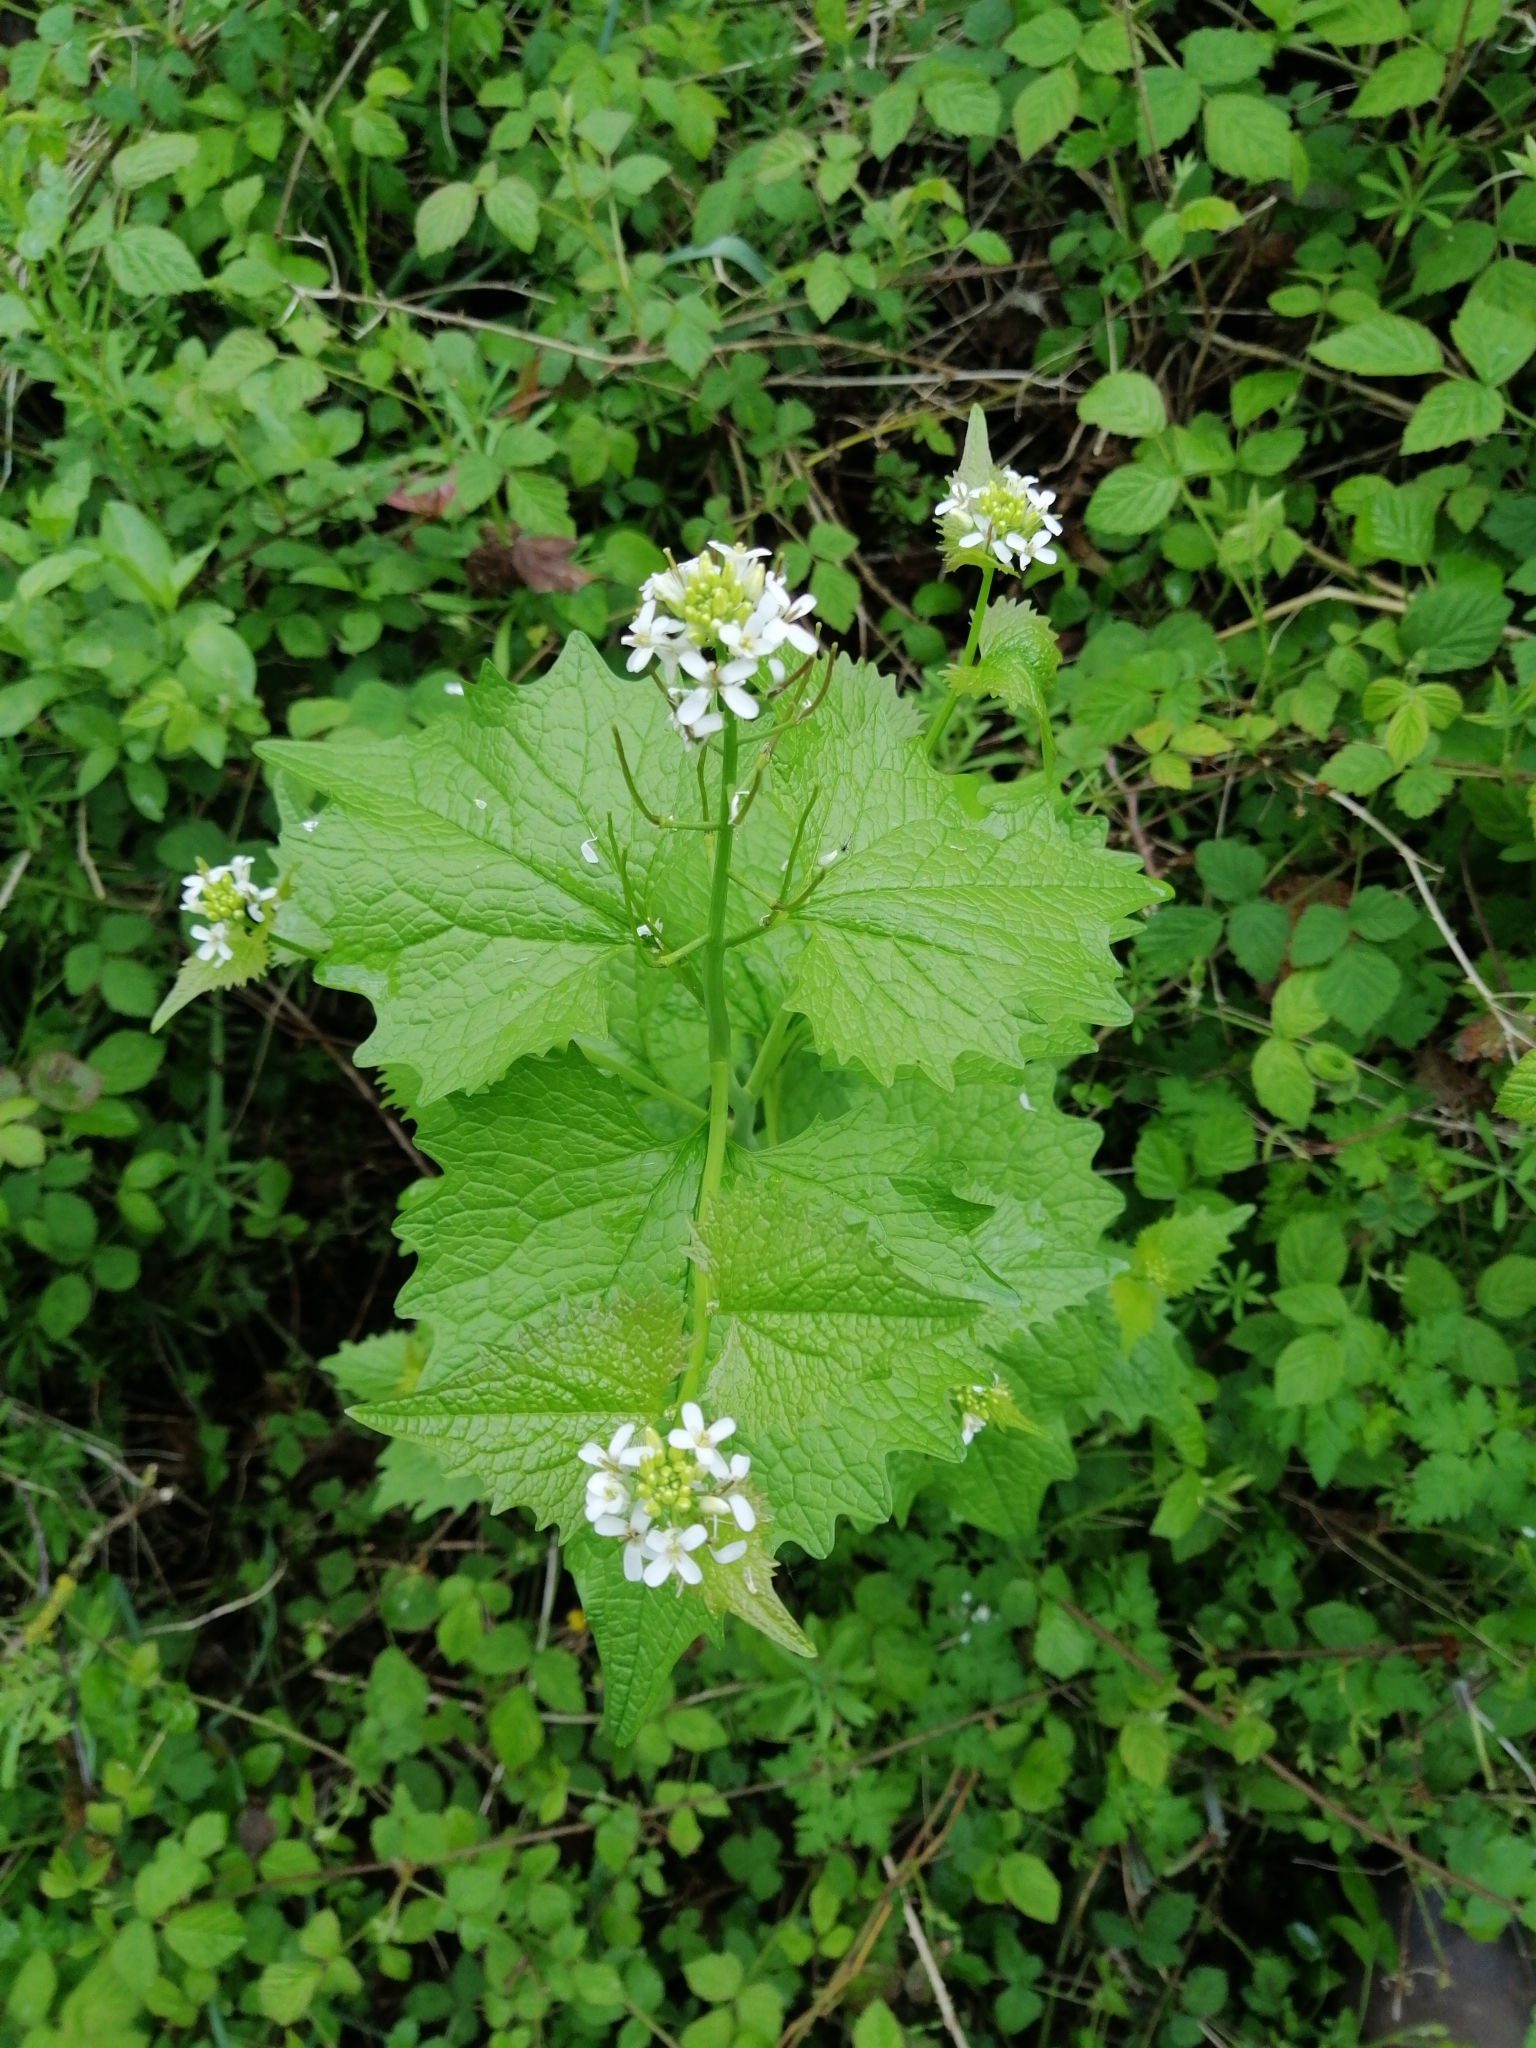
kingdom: Plantae
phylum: Tracheophyta
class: Magnoliopsida
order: Brassicales
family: Brassicaceae
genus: Alliaria
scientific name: Alliaria petiolata
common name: Garlic mustard
